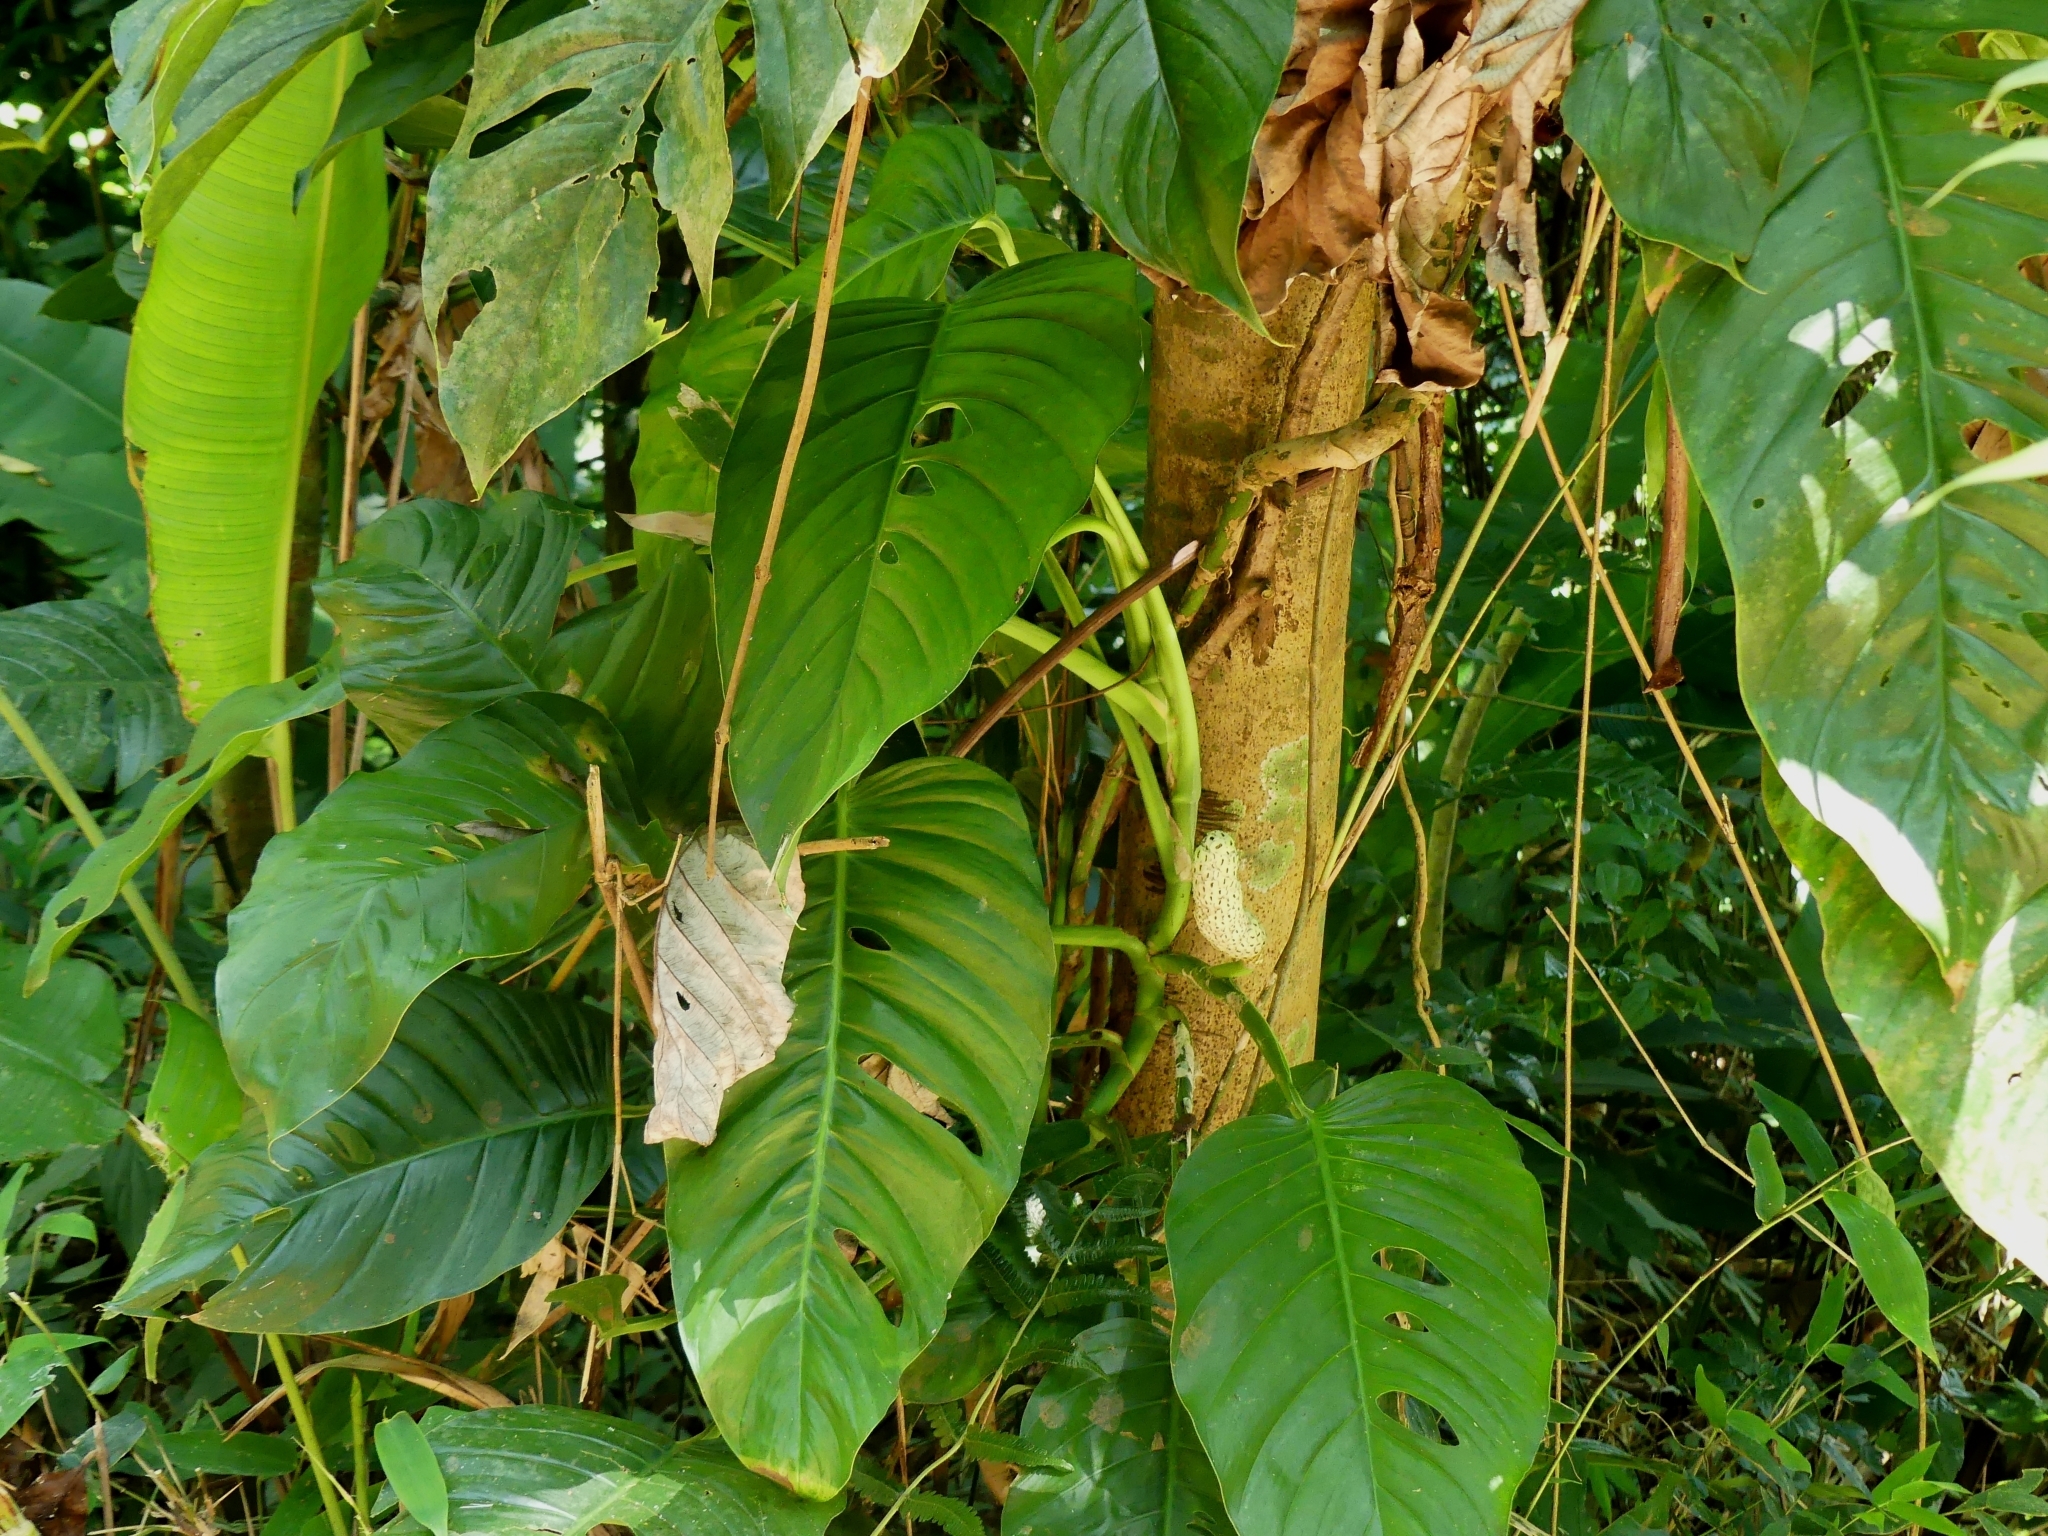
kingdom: Plantae
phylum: Tracheophyta
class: Liliopsida
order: Alismatales
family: Araceae
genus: Monstera
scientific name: Monstera adansonii
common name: Tarovine
